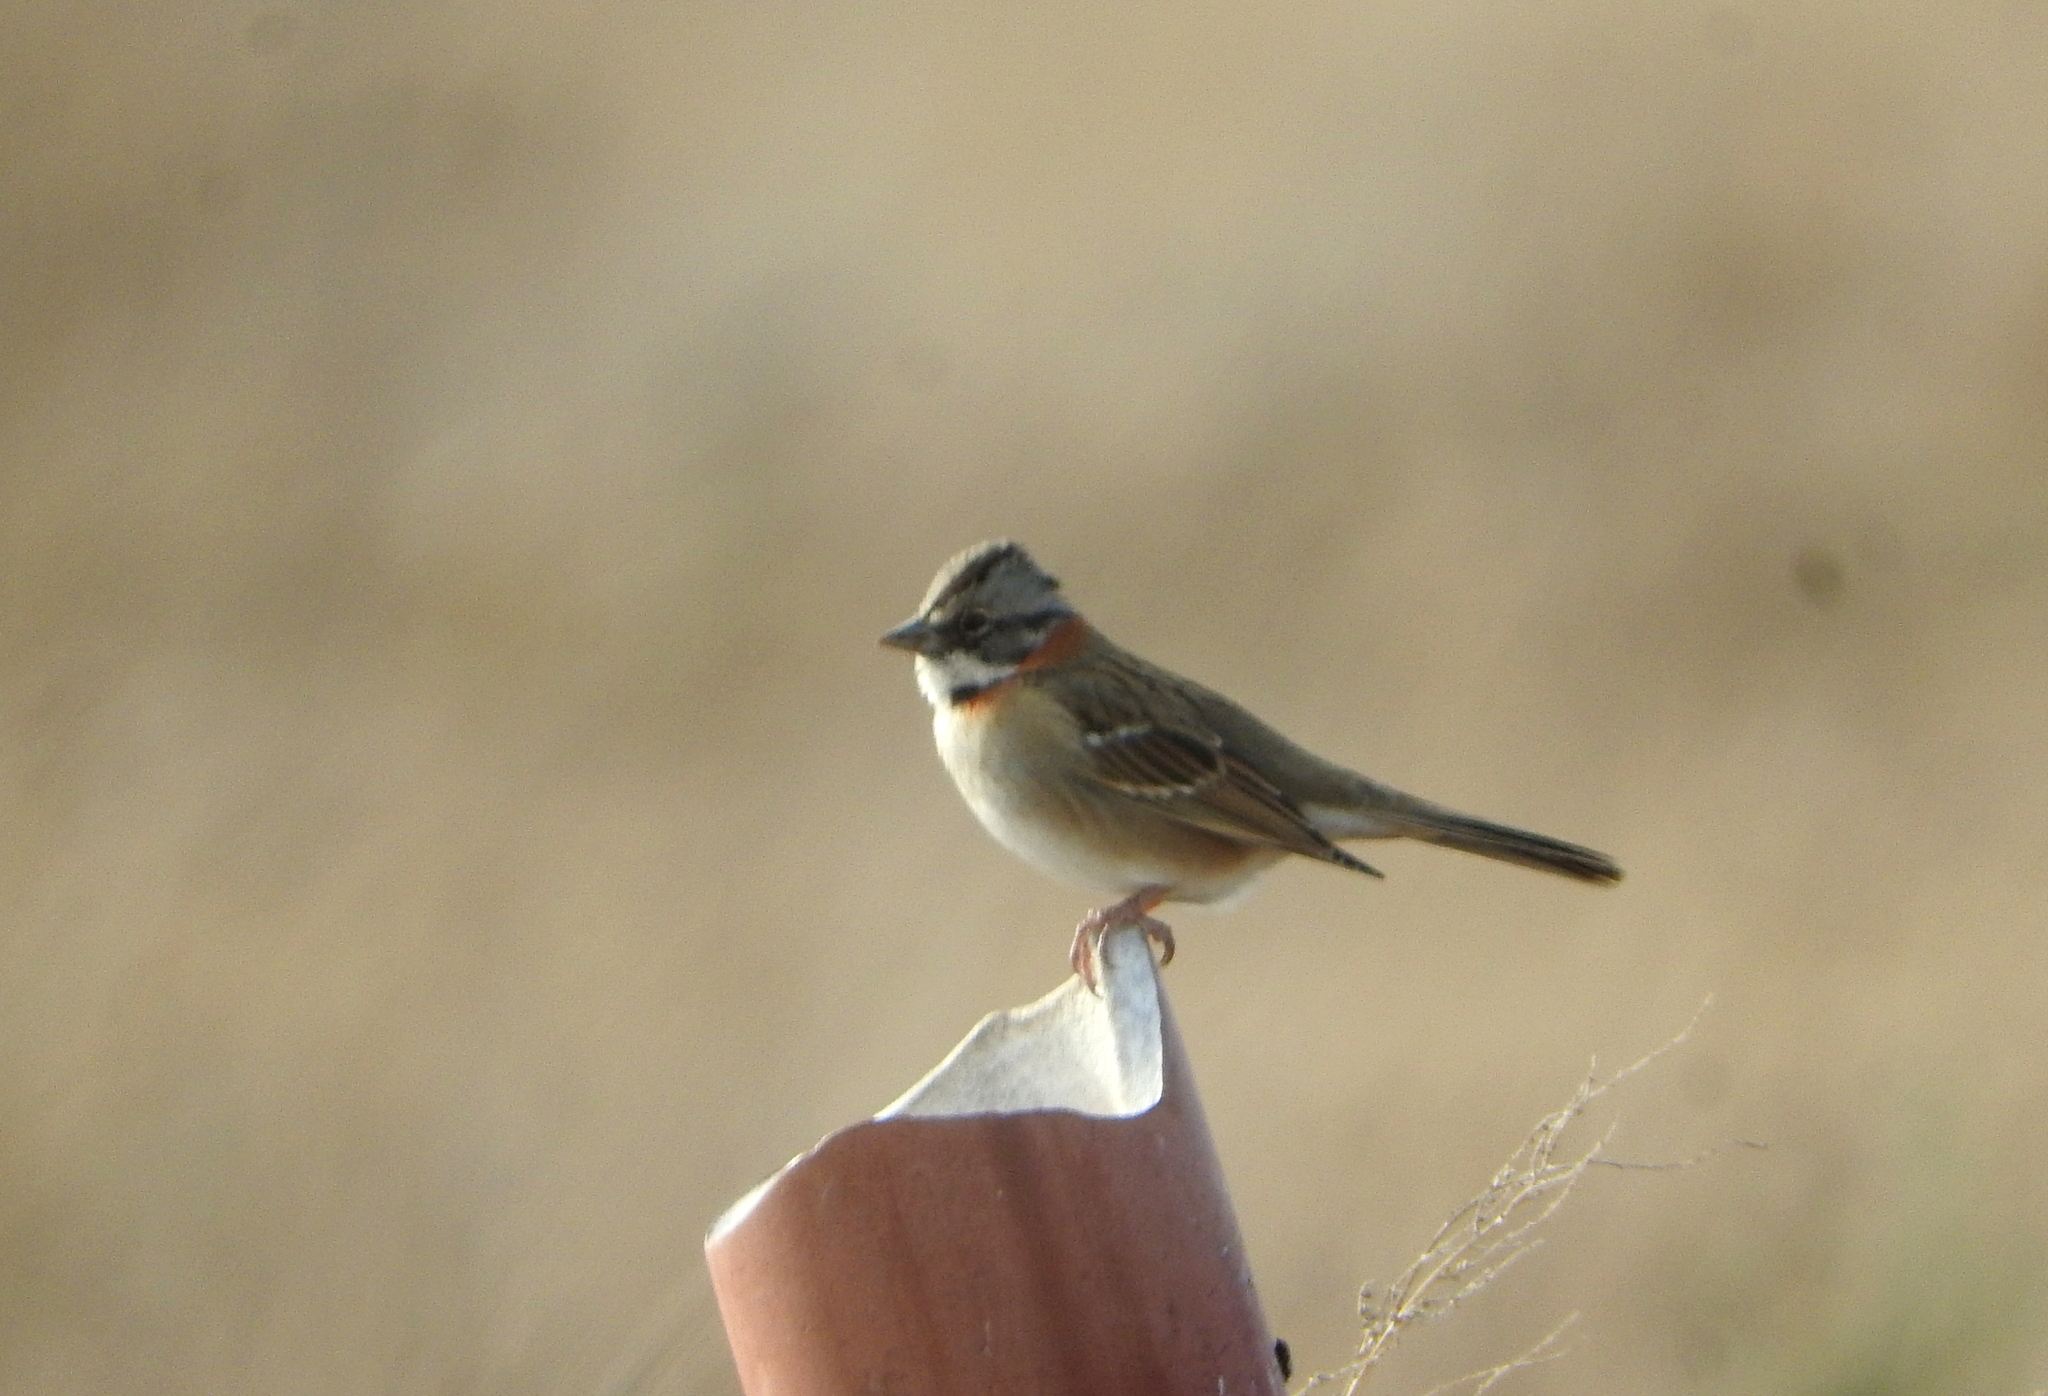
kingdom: Animalia
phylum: Chordata
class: Aves
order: Passeriformes
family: Passerellidae
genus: Zonotrichia
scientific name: Zonotrichia capensis
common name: Rufous-collared sparrow
